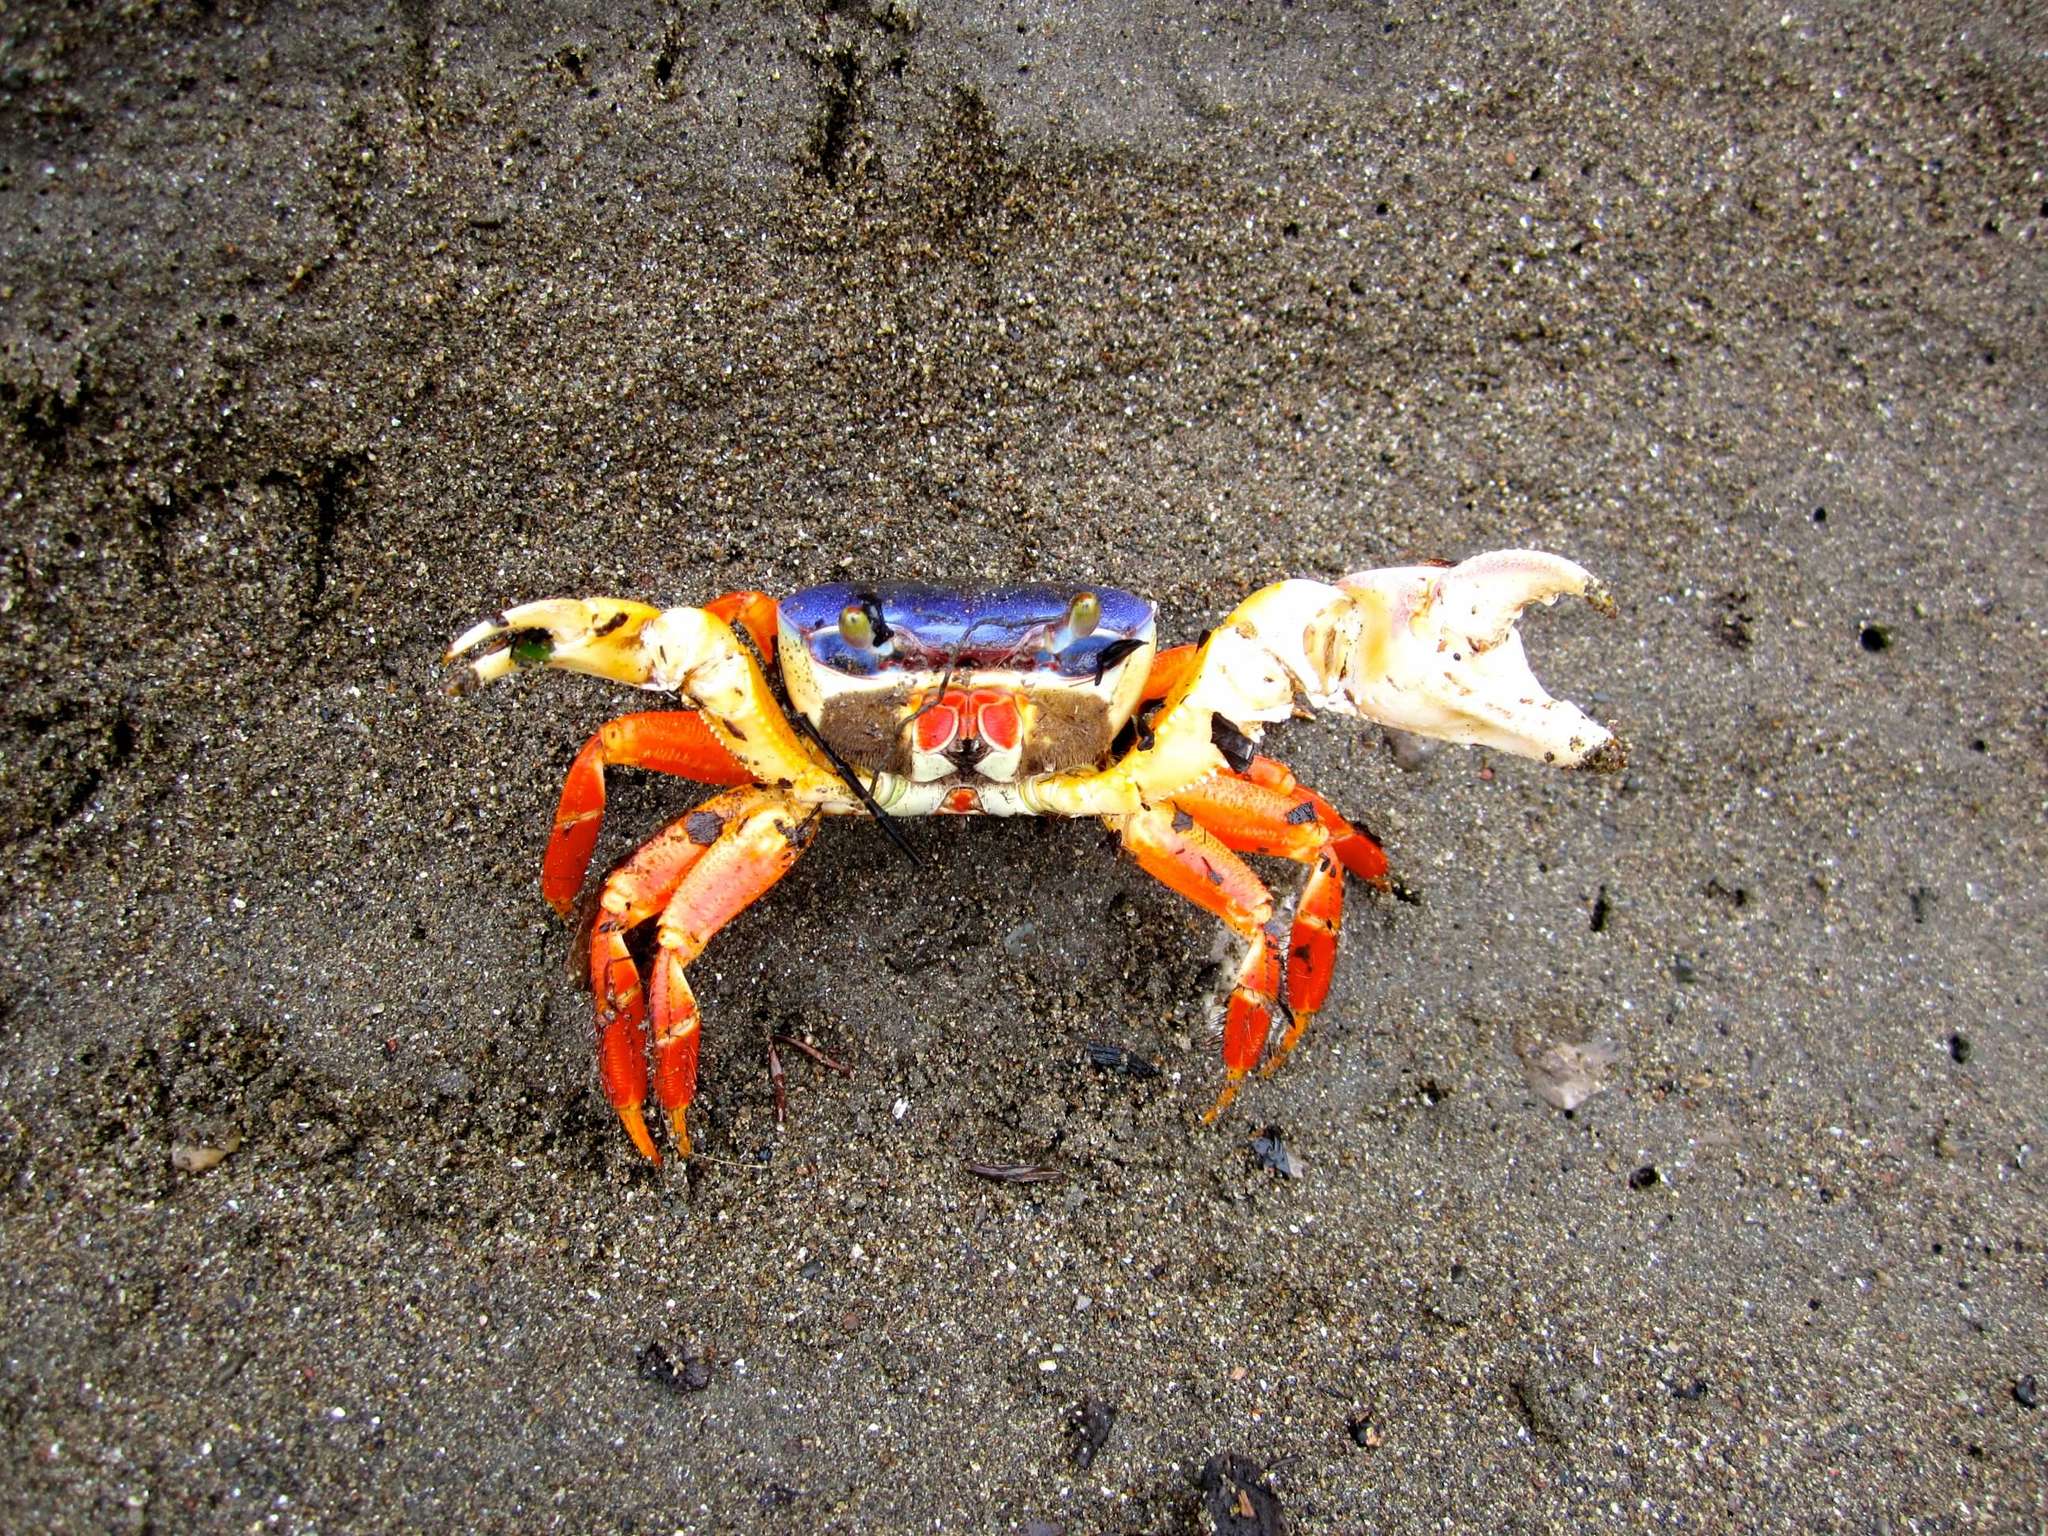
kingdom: Animalia
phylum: Arthropoda
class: Malacostraca
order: Decapoda
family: Gecarcinidae
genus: Cardisoma
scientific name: Cardisoma crassum
